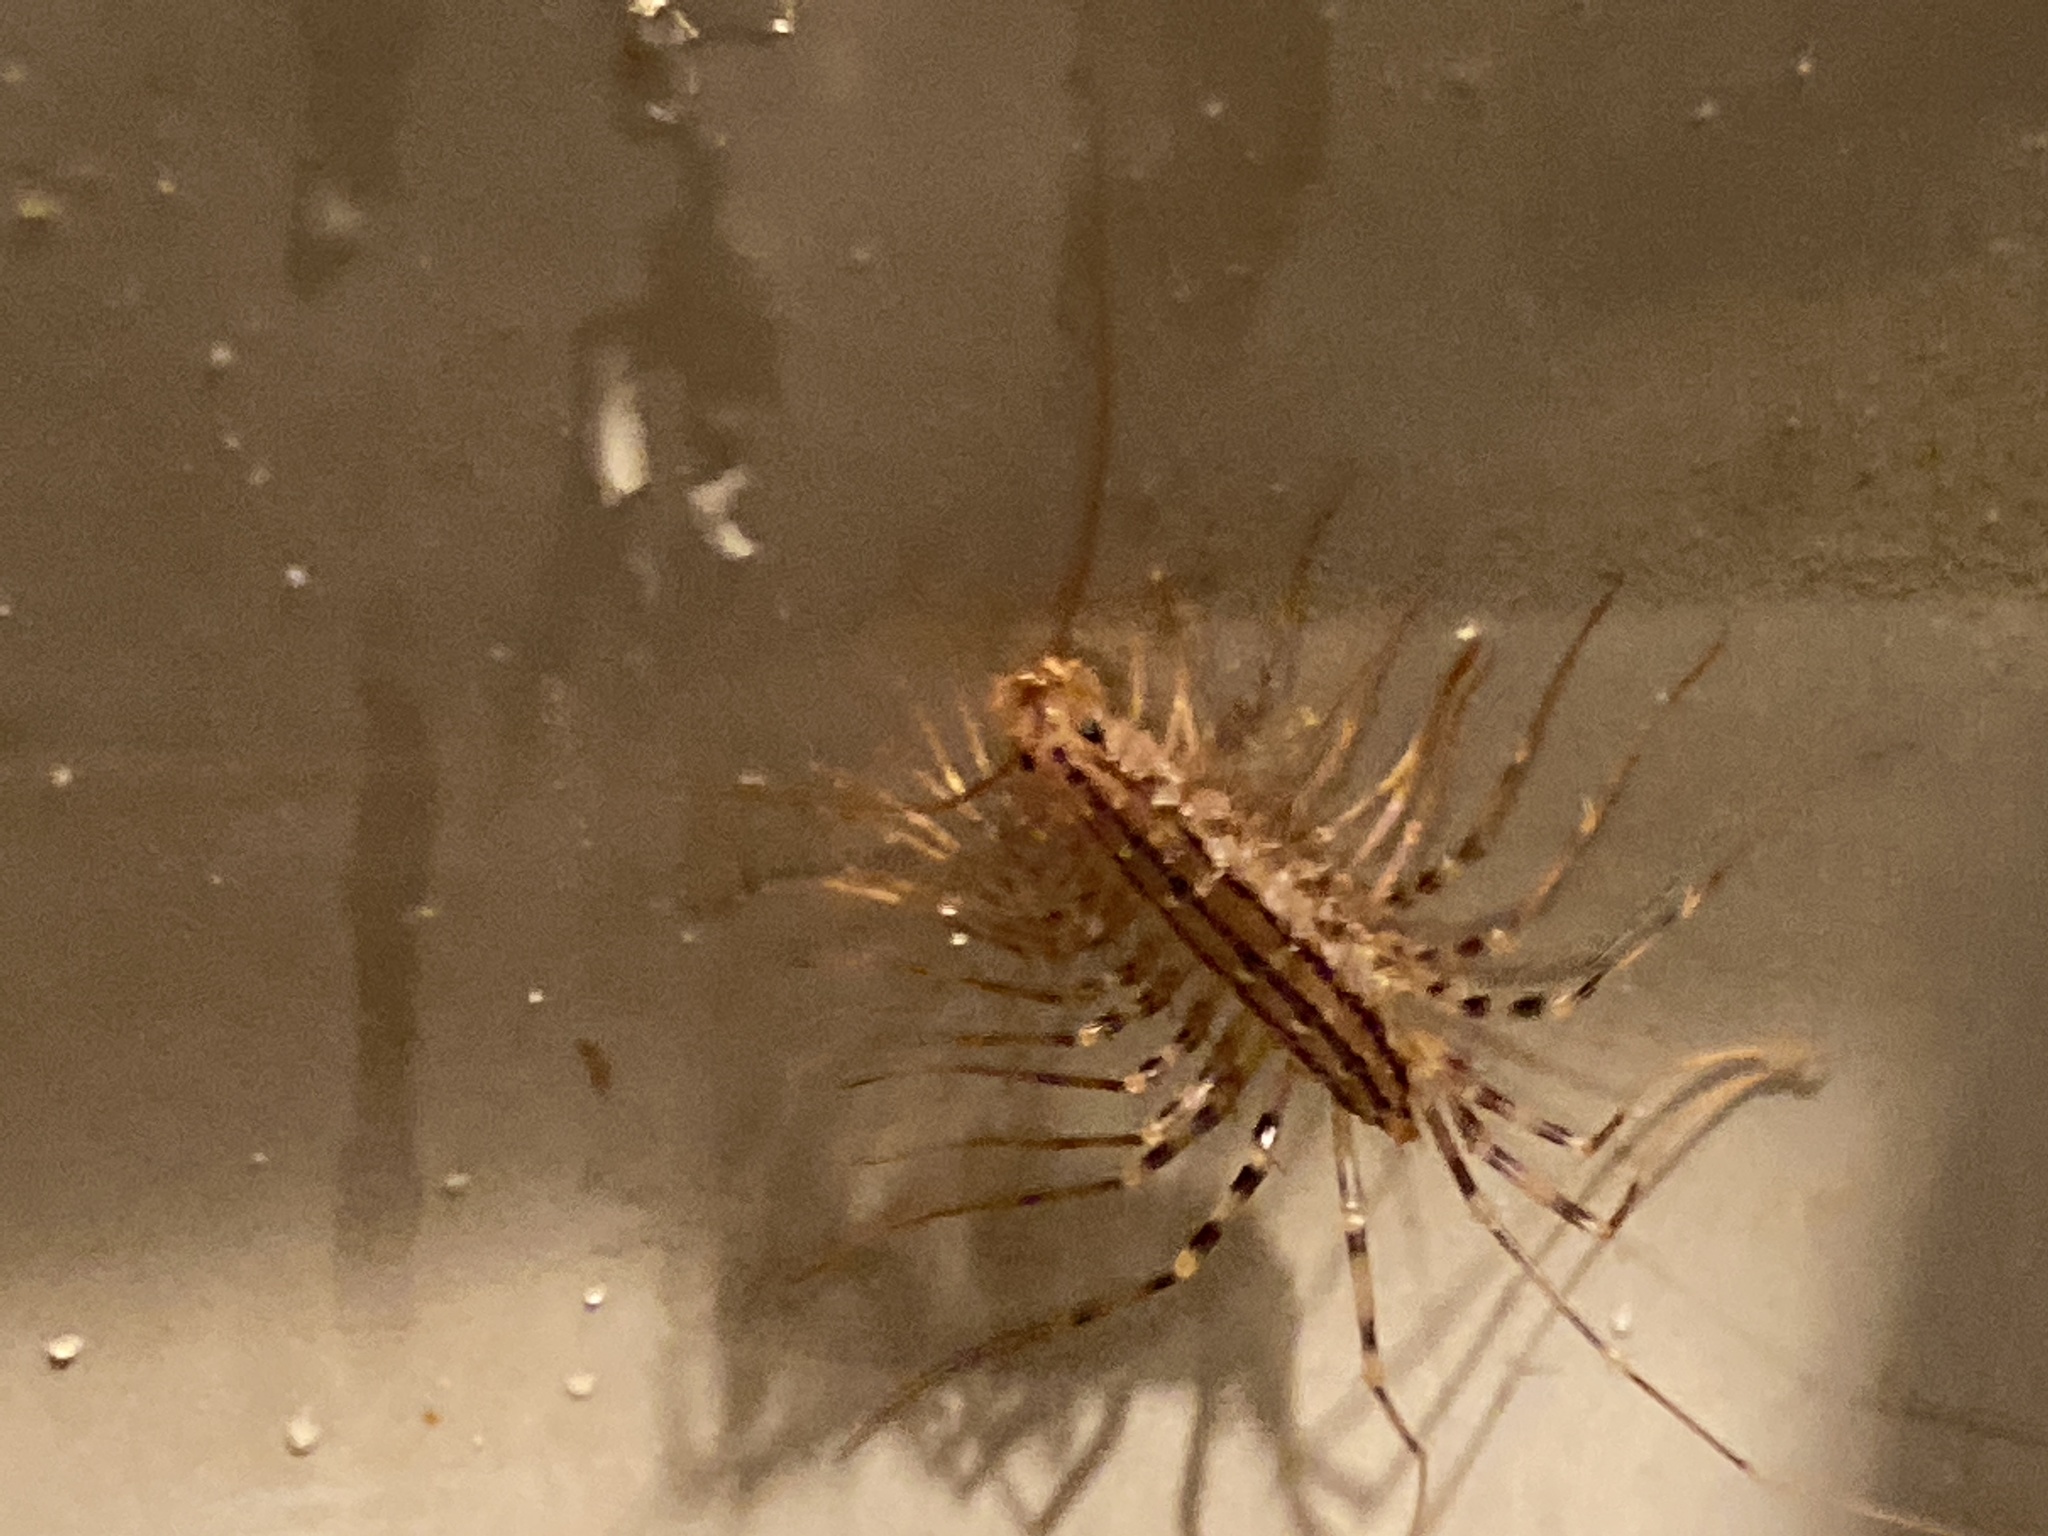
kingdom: Animalia
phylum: Arthropoda
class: Chilopoda
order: Scutigeromorpha
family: Scutigeridae
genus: Scutigera
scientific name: Scutigera coleoptrata
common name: House centipede
